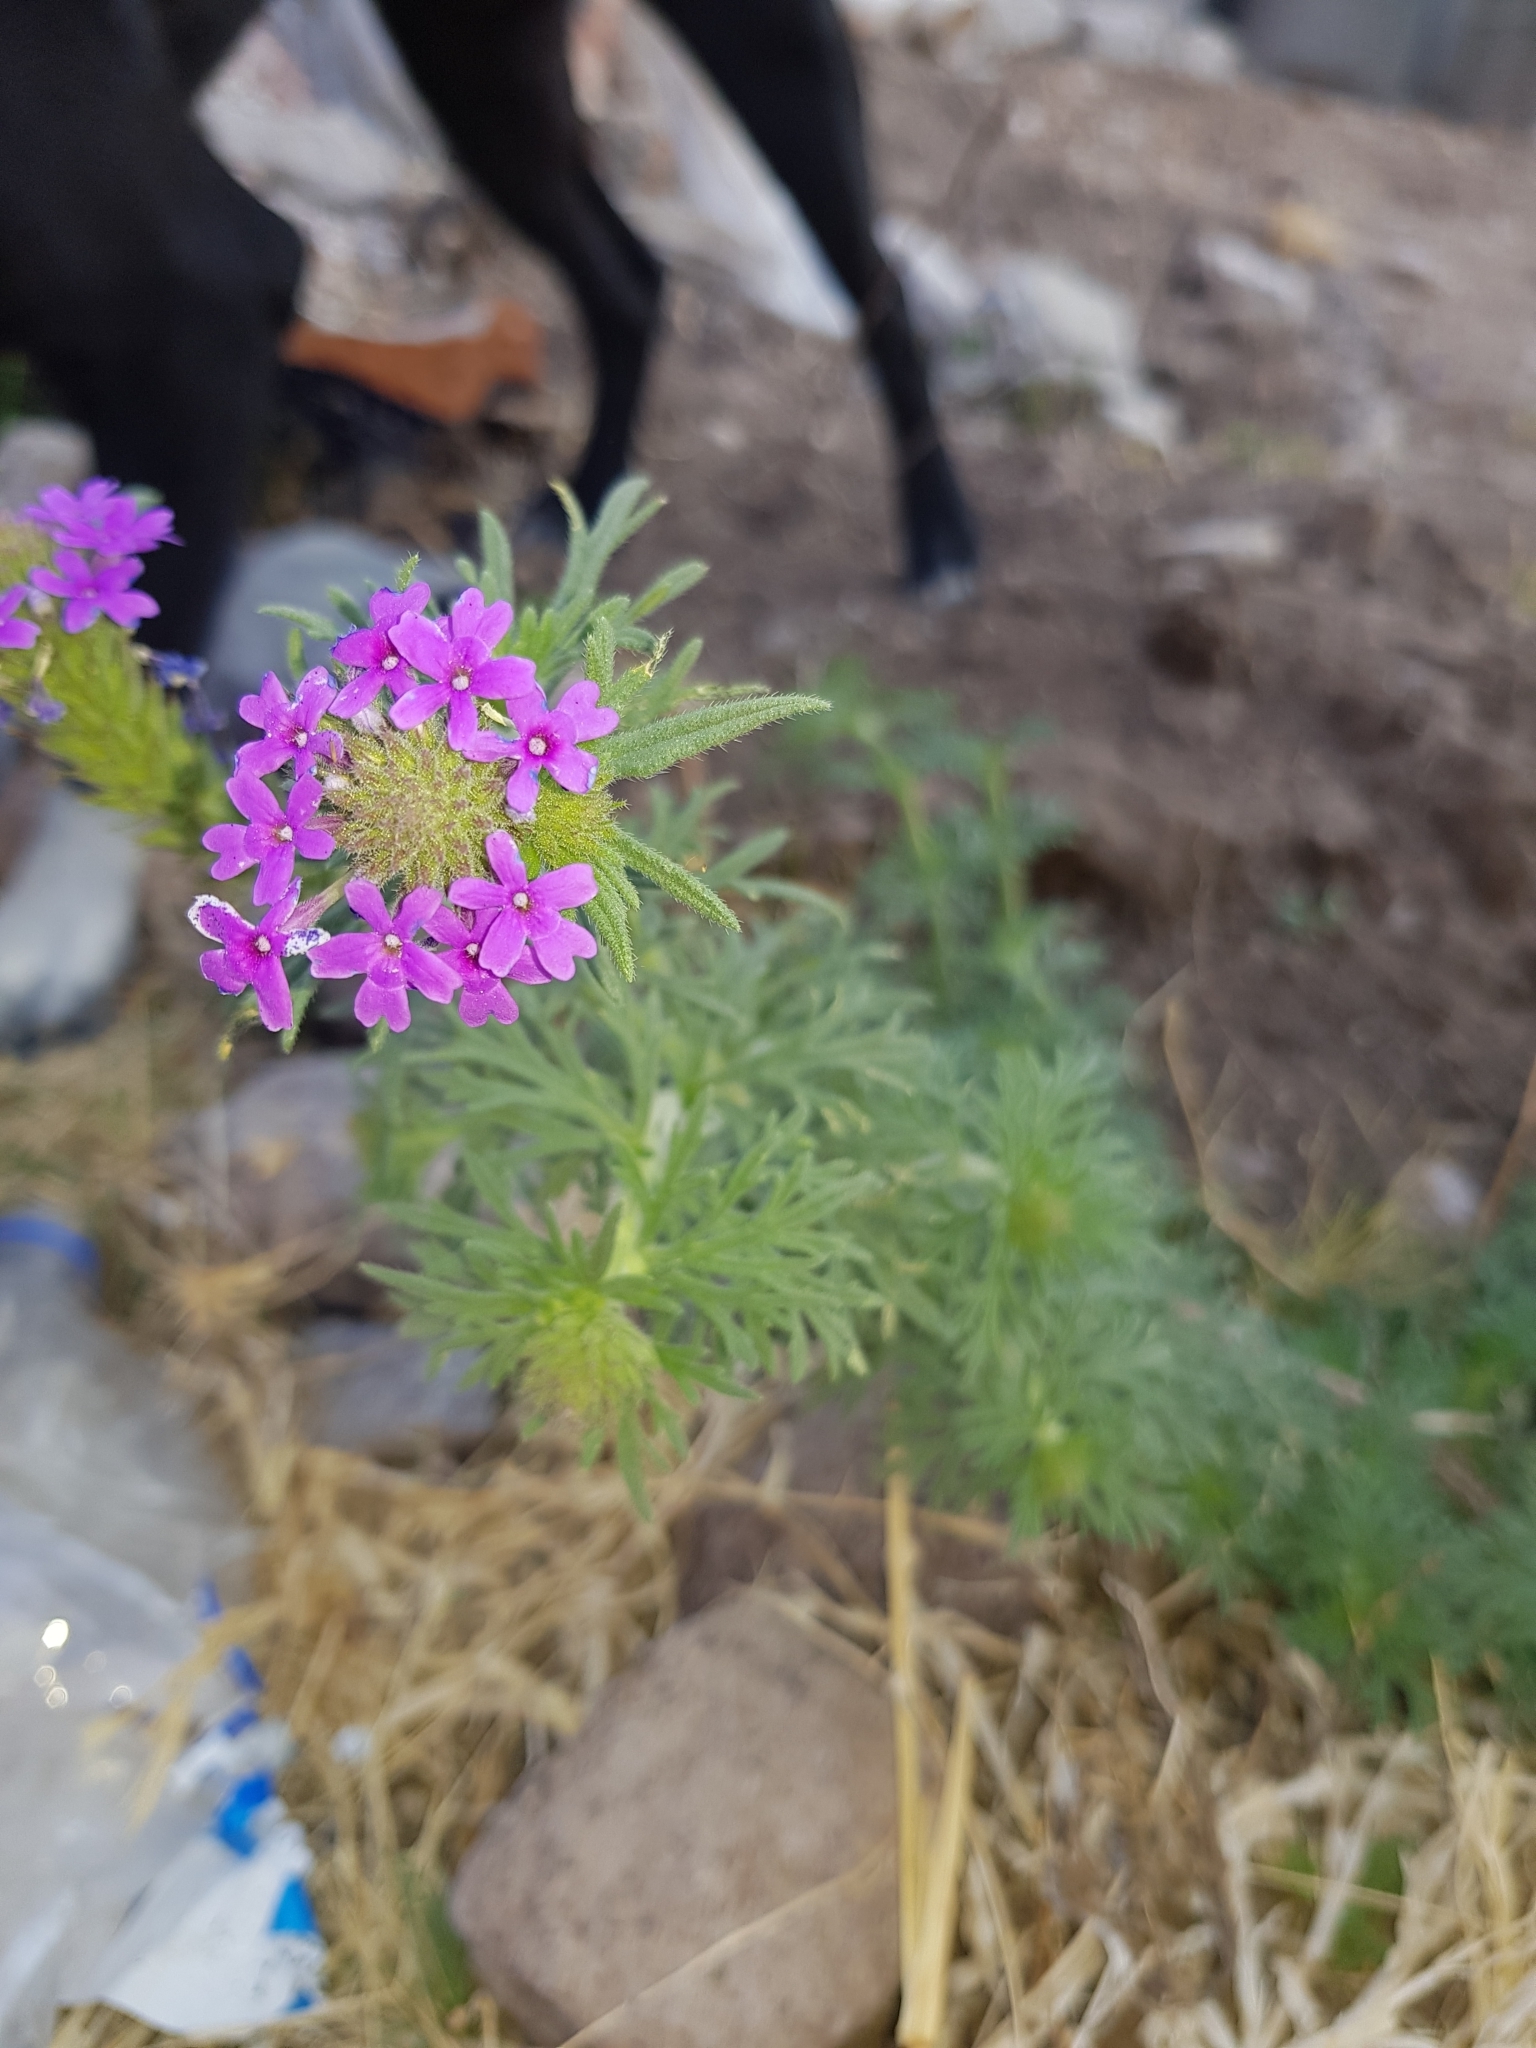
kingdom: Plantae
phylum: Tracheophyta
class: Magnoliopsida
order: Lamiales
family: Verbenaceae
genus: Verbena
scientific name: Verbena bipinnatifida
